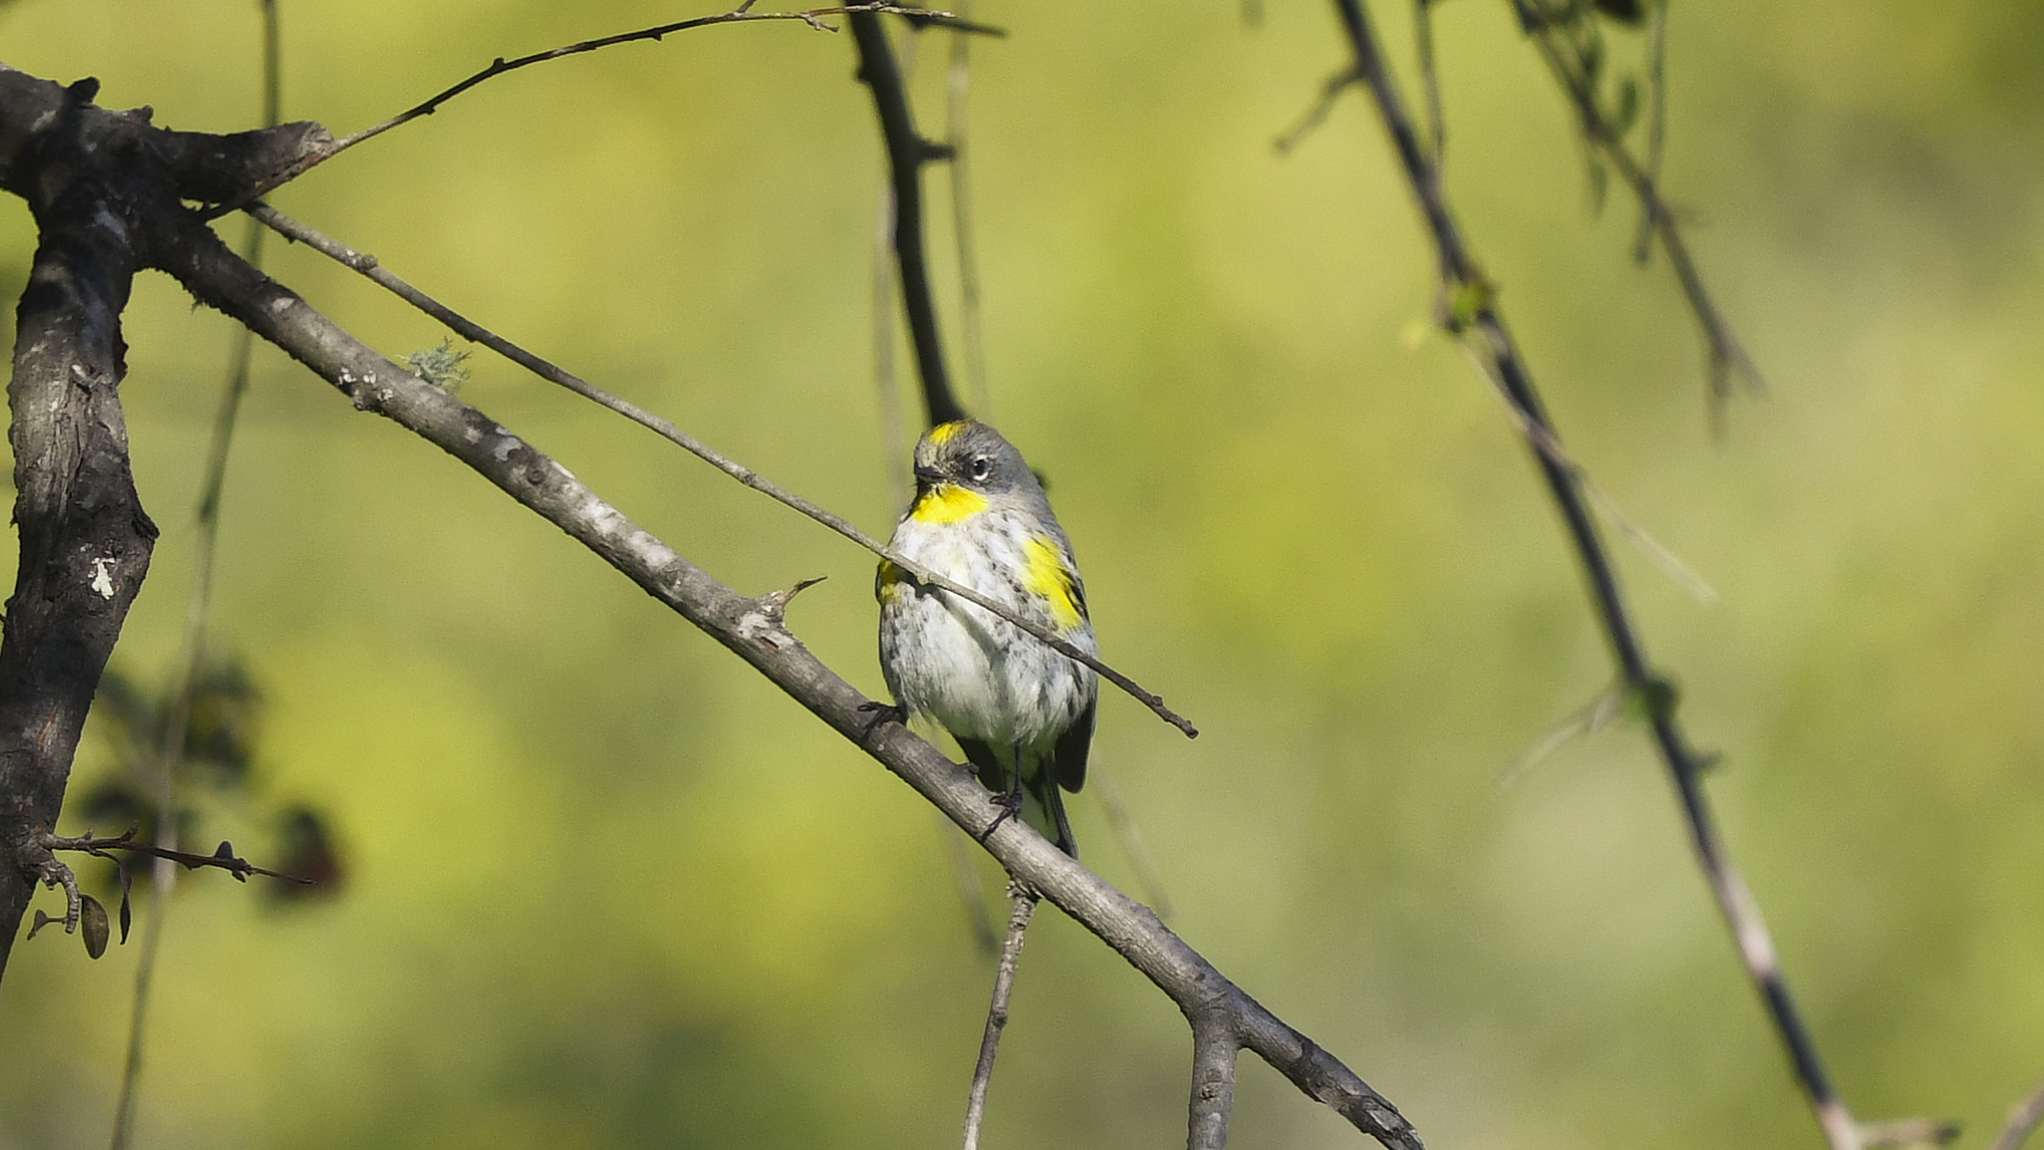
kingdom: Animalia
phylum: Chordata
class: Aves
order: Passeriformes
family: Parulidae
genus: Setophaga
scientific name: Setophaga coronata
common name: Myrtle warbler
